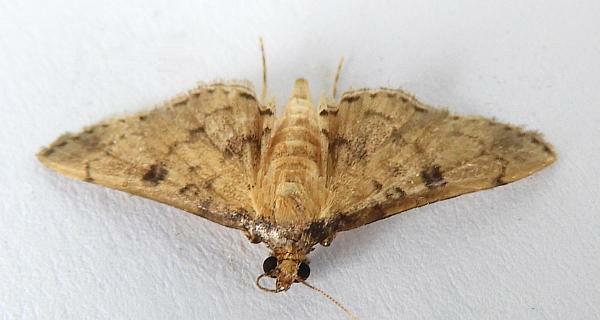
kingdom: Animalia
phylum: Arthropoda
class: Insecta
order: Lepidoptera
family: Crambidae
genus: Nacoleia
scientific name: Nacoleia charesalis
